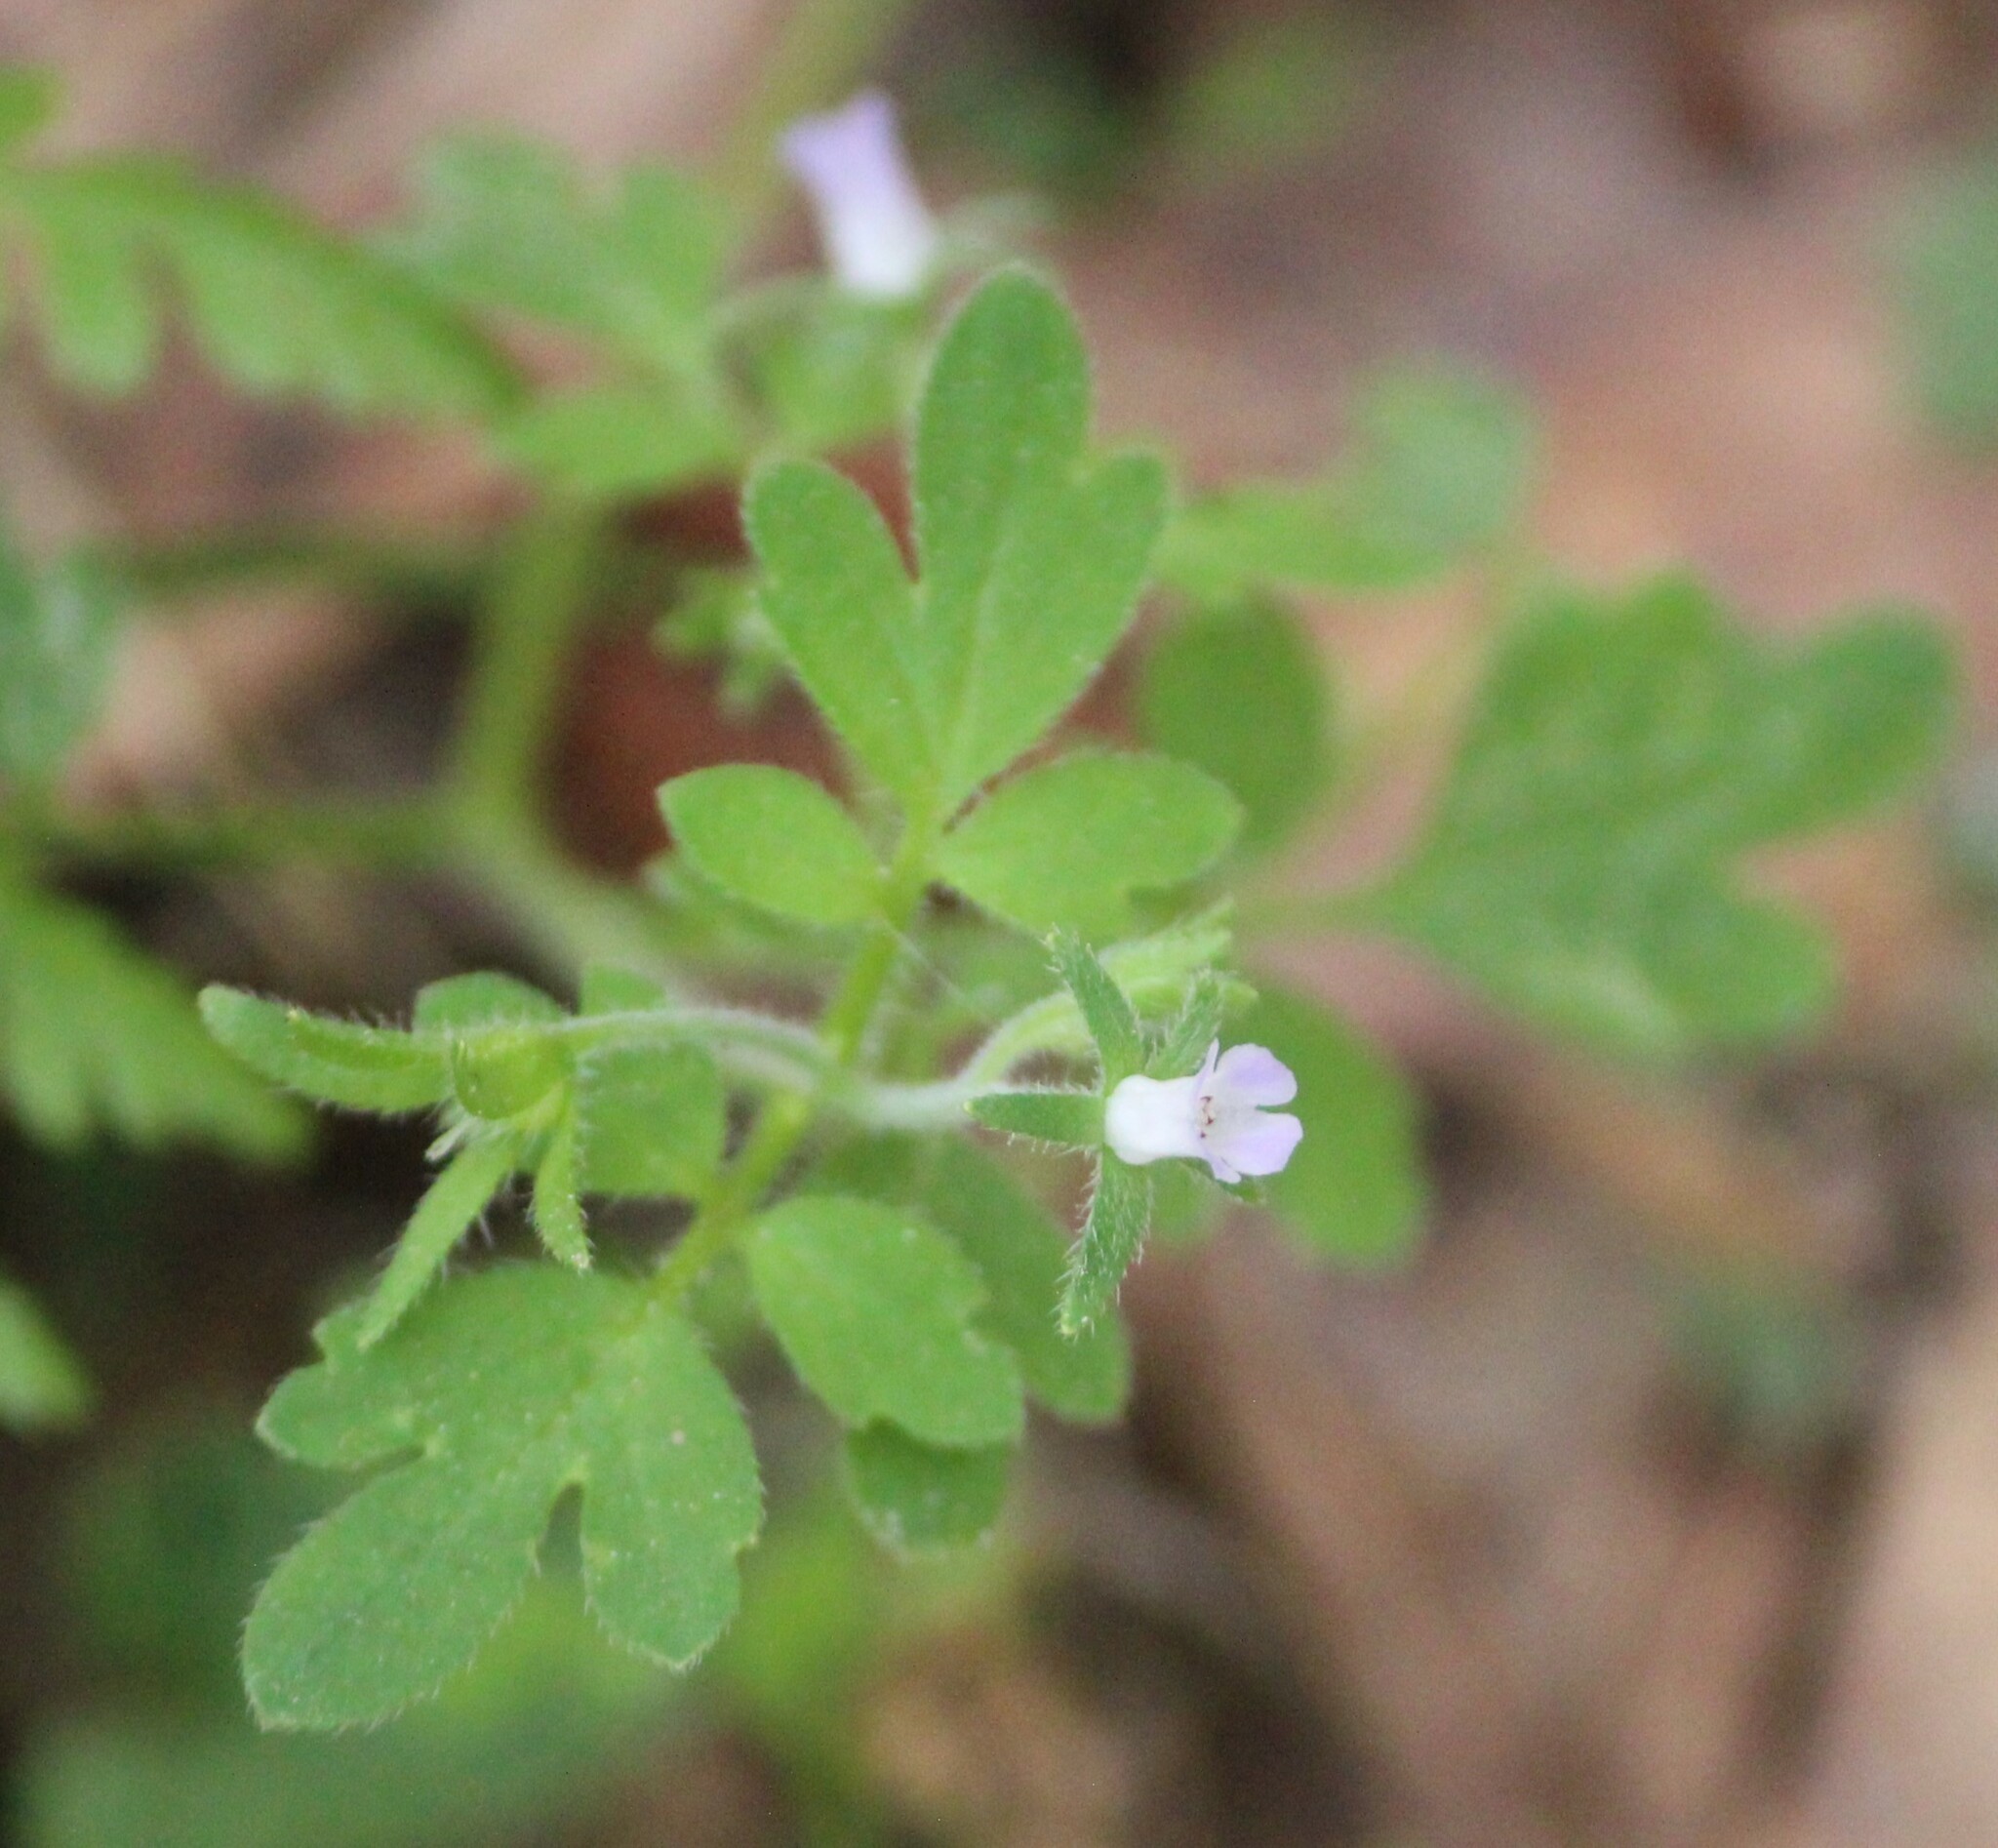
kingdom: Plantae
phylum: Tracheophyta
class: Magnoliopsida
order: Boraginales
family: Hydrophyllaceae
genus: Phacelia
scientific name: Phacelia covillei
